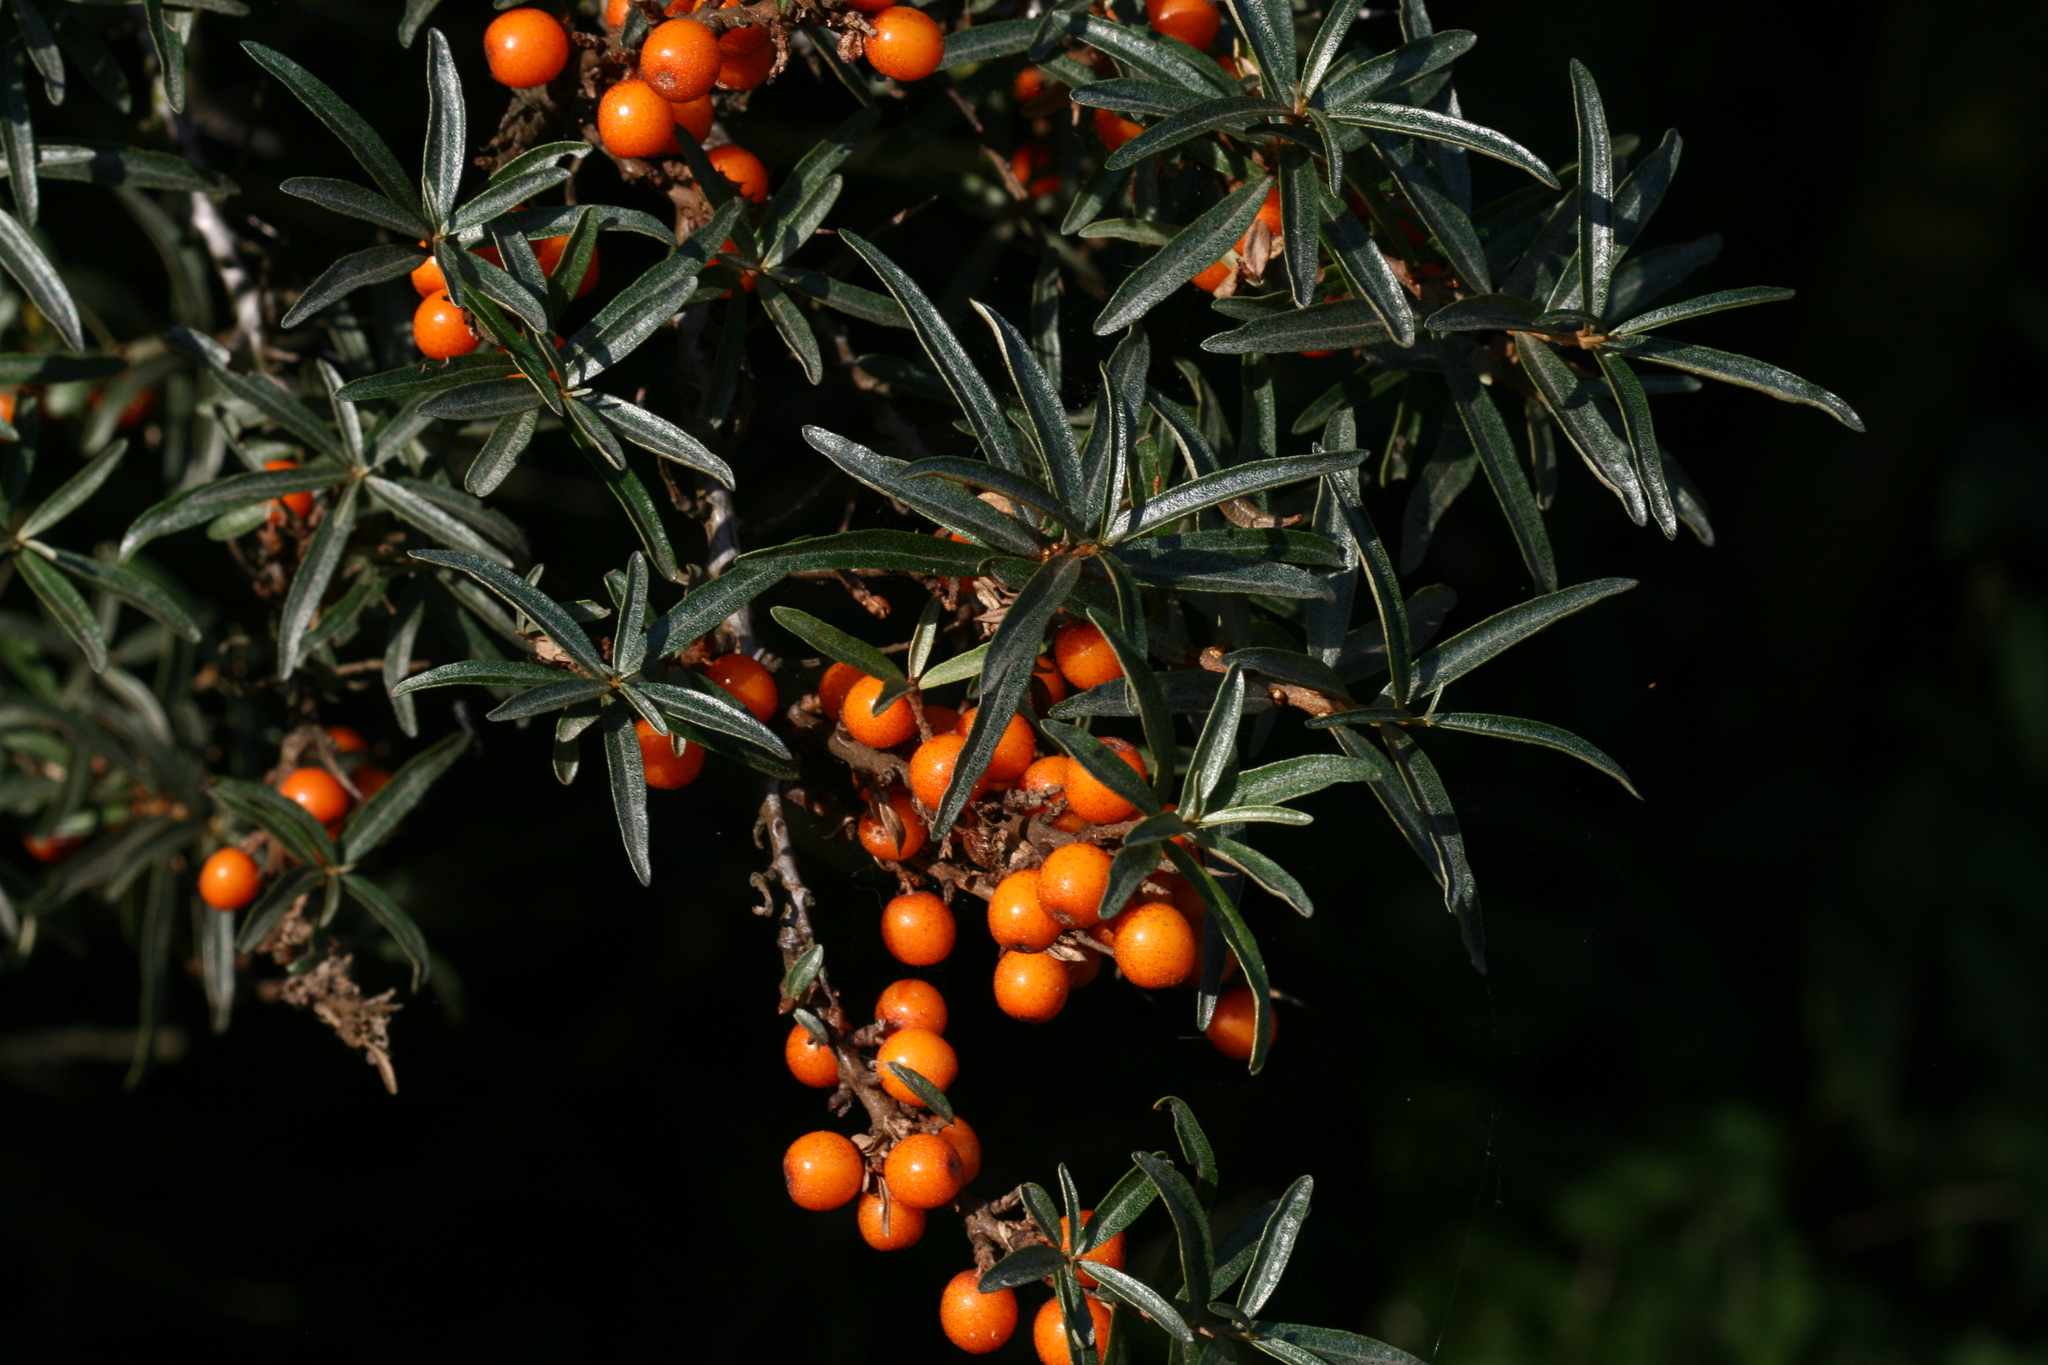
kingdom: Plantae
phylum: Tracheophyta
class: Magnoliopsida
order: Rosales
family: Elaeagnaceae
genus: Hippophae
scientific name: Hippophae rhamnoides
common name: Sea-buckthorn
